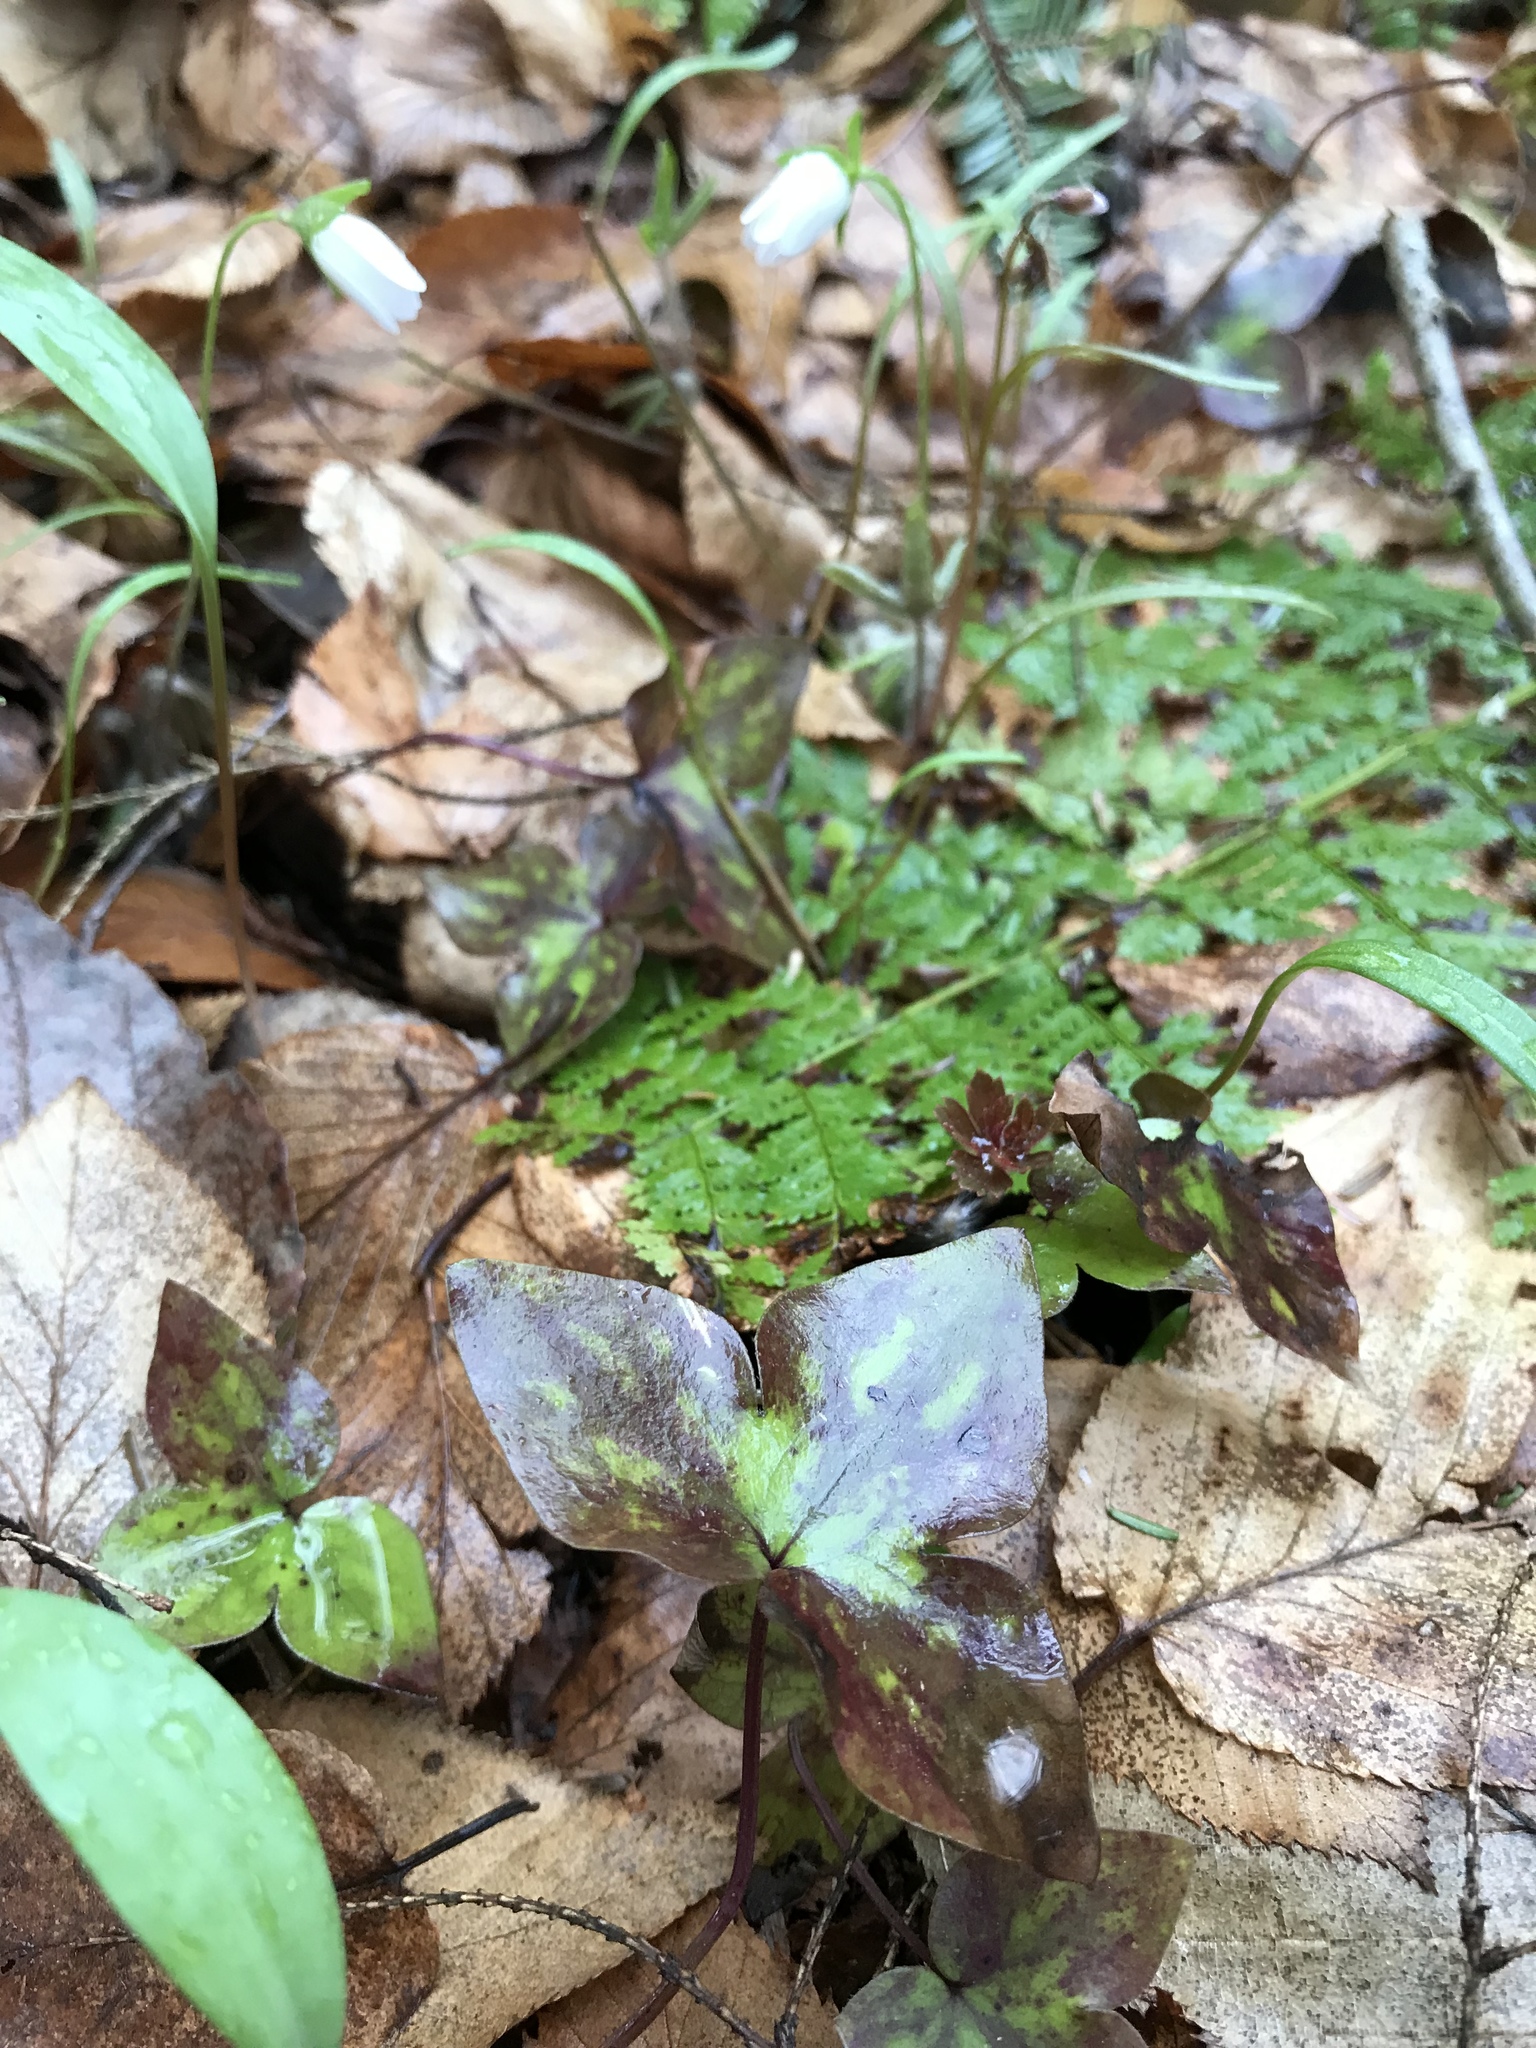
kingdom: Plantae
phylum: Tracheophyta
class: Magnoliopsida
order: Ranunculales
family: Ranunculaceae
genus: Hepatica
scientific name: Hepatica acutiloba
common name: Sharp-lobed hepatica
